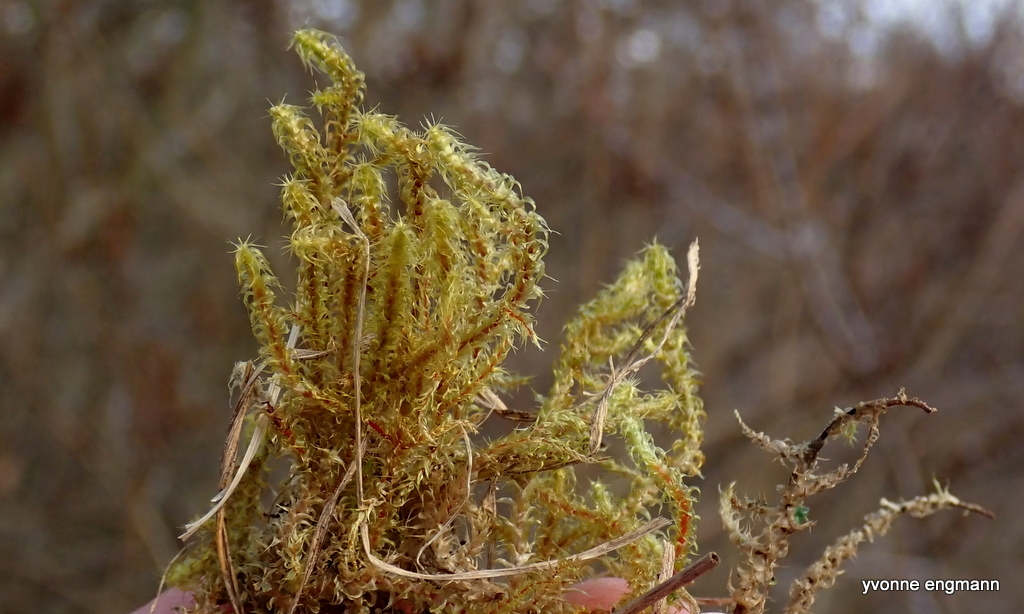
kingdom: Plantae
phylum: Bryophyta
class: Bryopsida
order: Hypnales
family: Hylocomiaceae
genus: Rhytidiadelphus
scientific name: Rhytidiadelphus squarrosus
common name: Springy turf-moss
